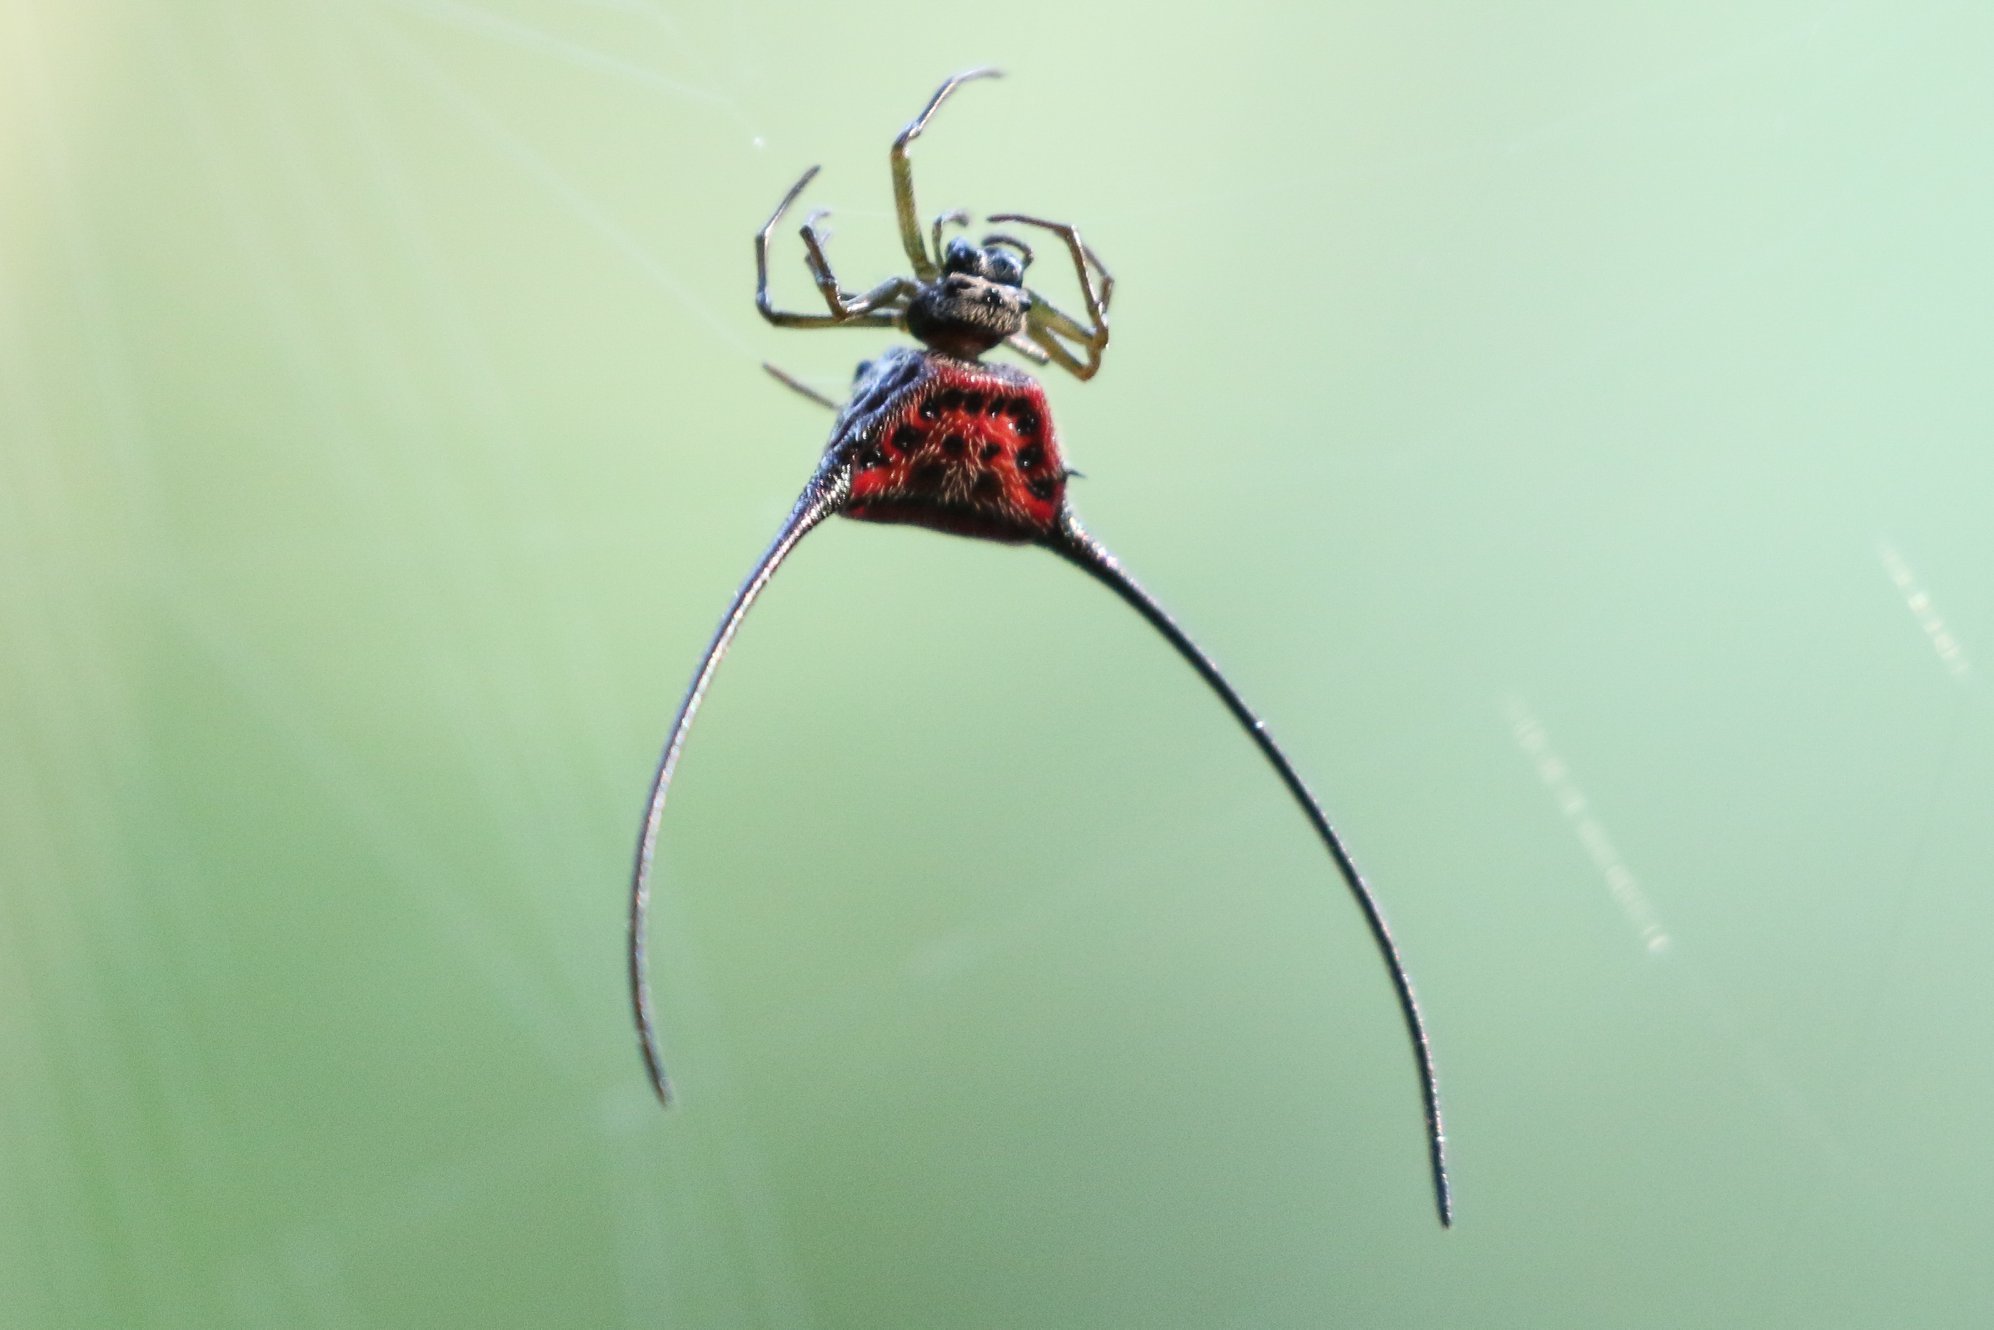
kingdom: Animalia
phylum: Arthropoda
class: Arachnida
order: Araneae
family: Araneidae
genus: Macracantha
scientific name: Macracantha arcuata
